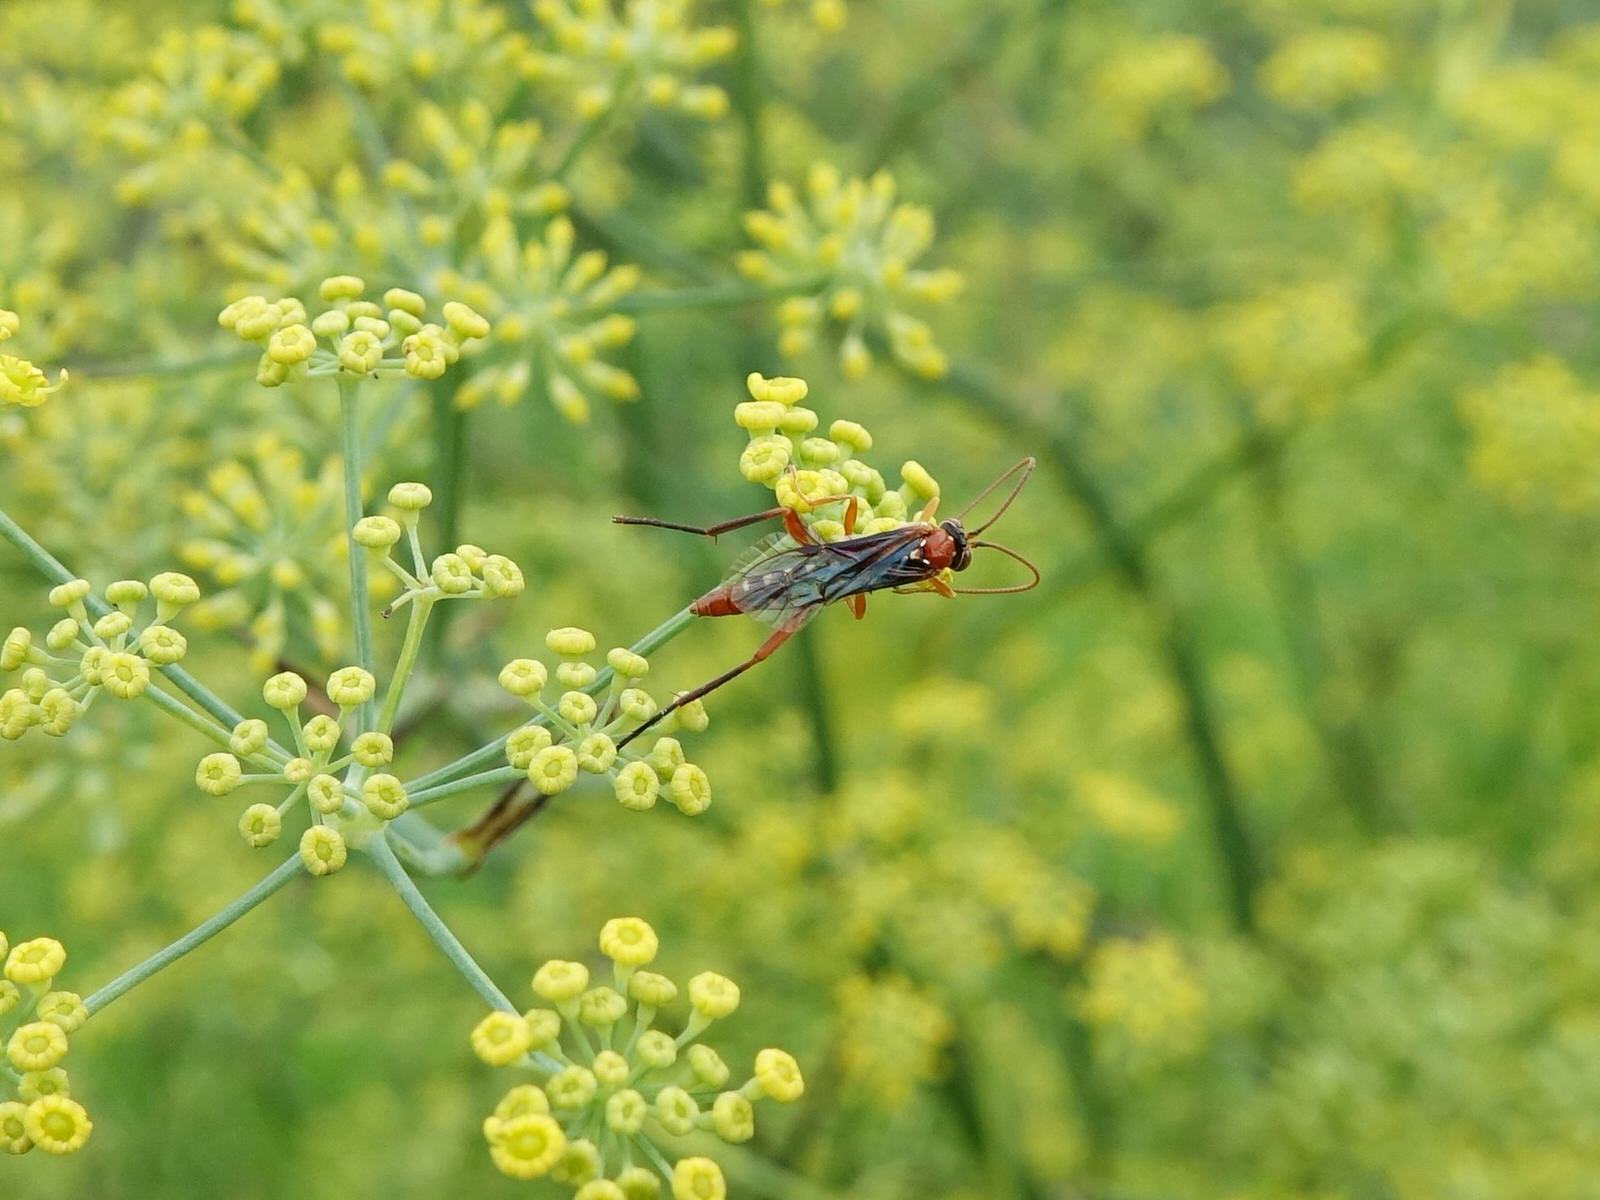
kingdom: Animalia
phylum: Arthropoda
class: Insecta
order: Hymenoptera
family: Ichneumonidae
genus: Lissopimpla
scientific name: Lissopimpla excelsa
